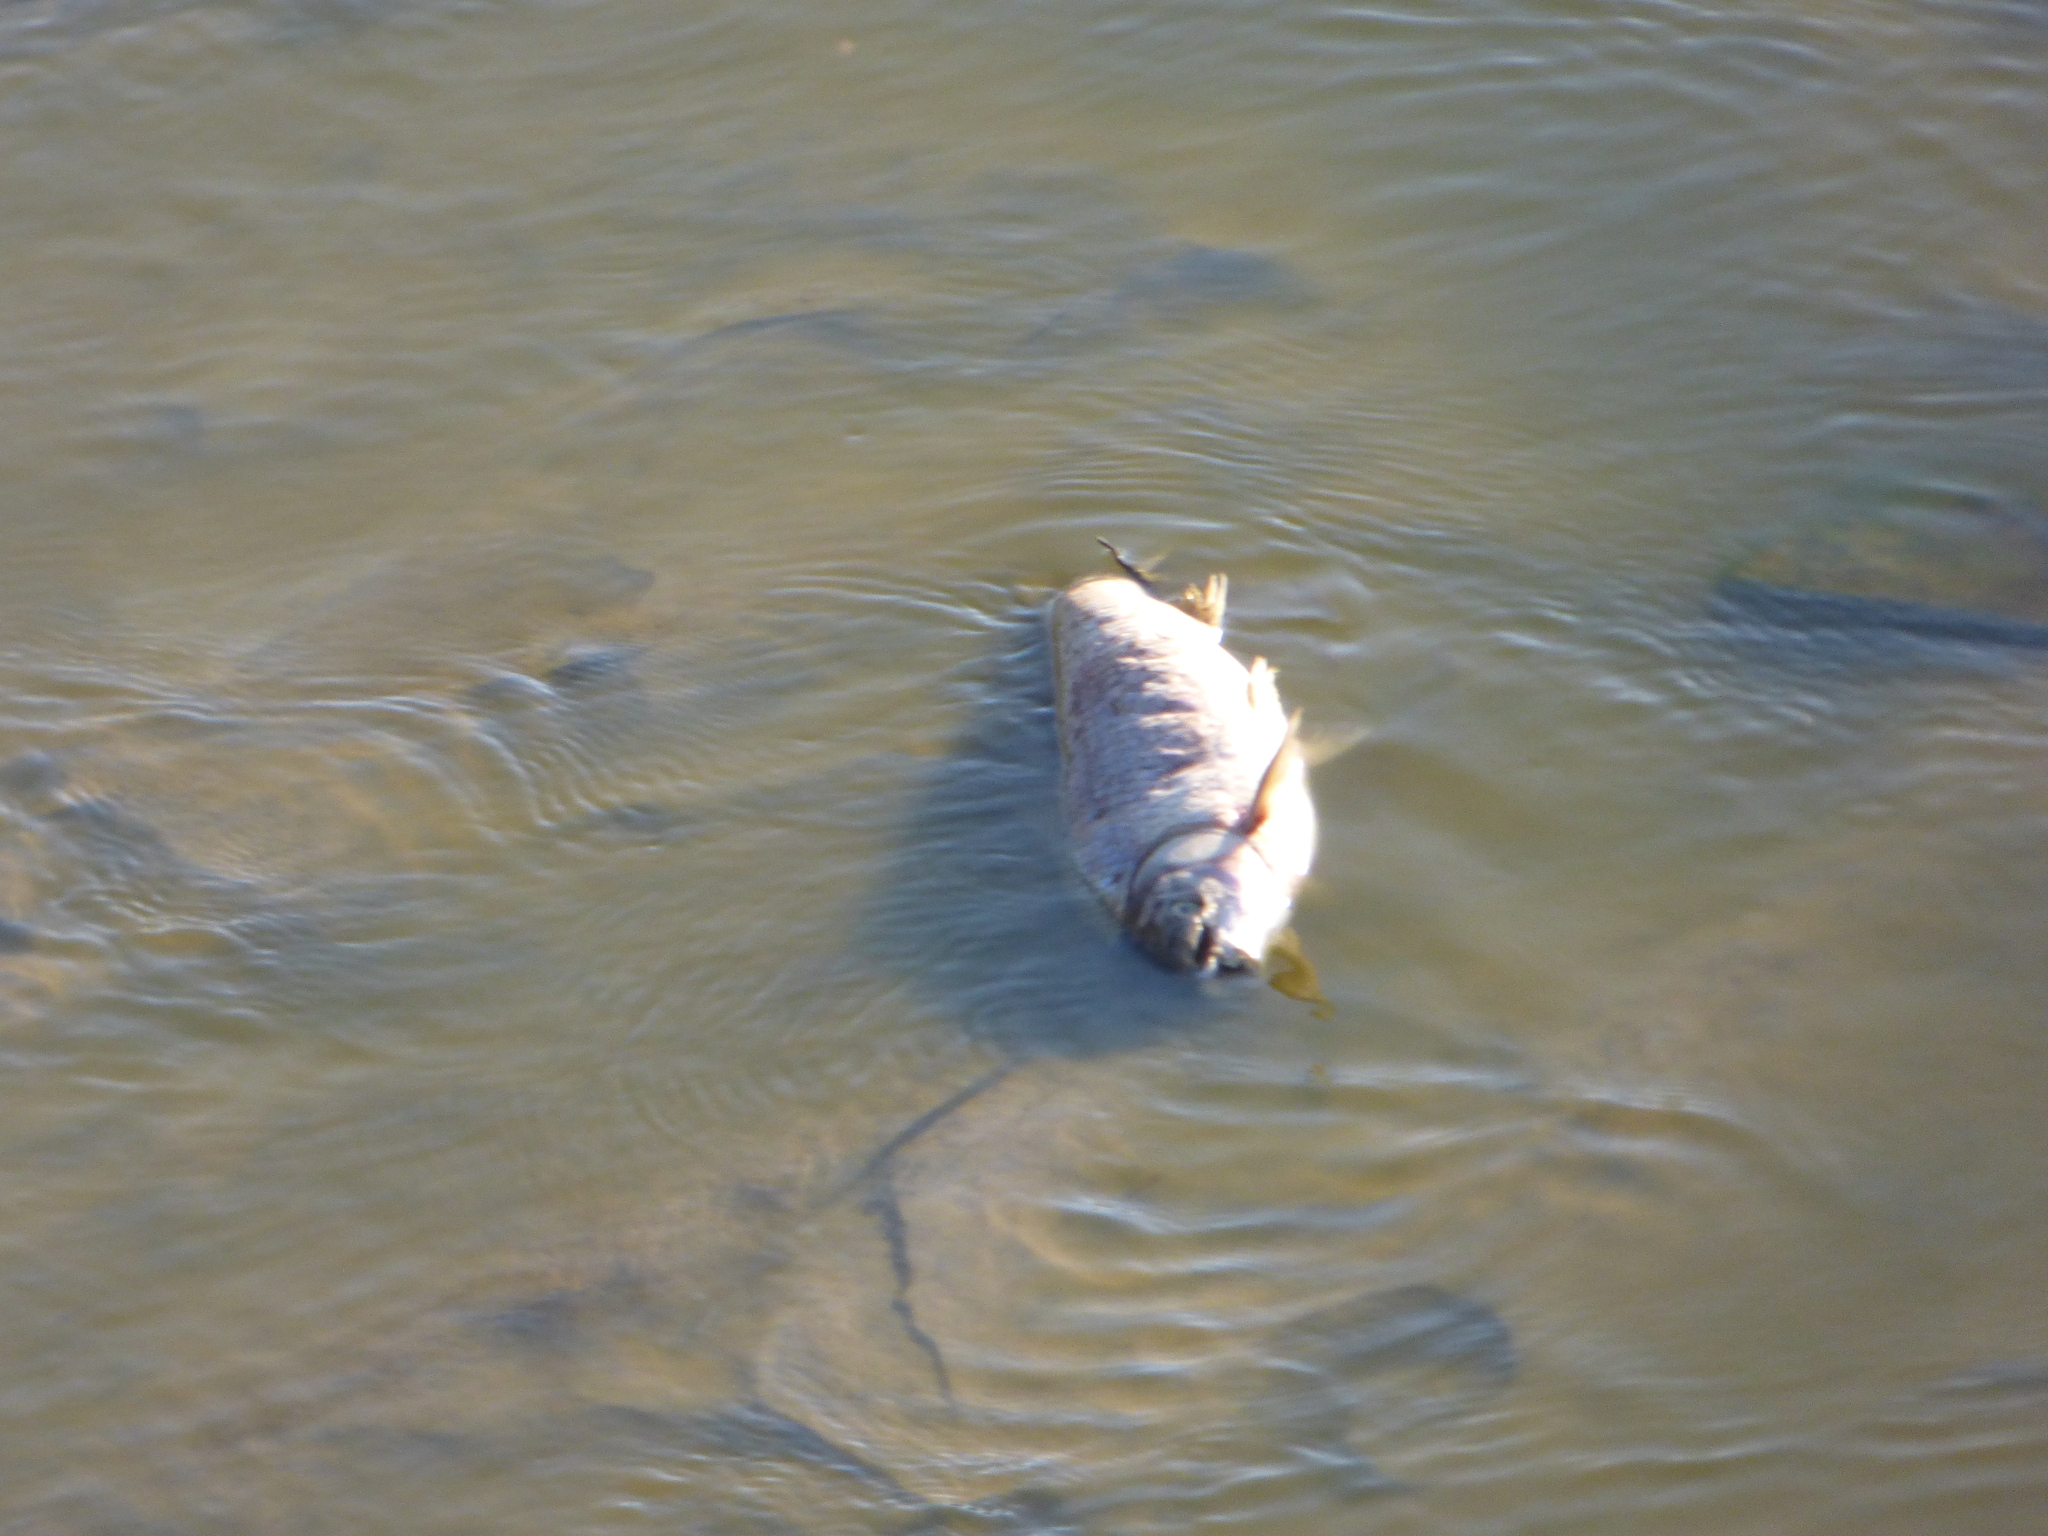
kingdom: Animalia
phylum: Chordata
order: Characiformes
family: Prochilodontidae
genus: Prochilodus
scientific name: Prochilodus lineatus
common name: Curimbata
